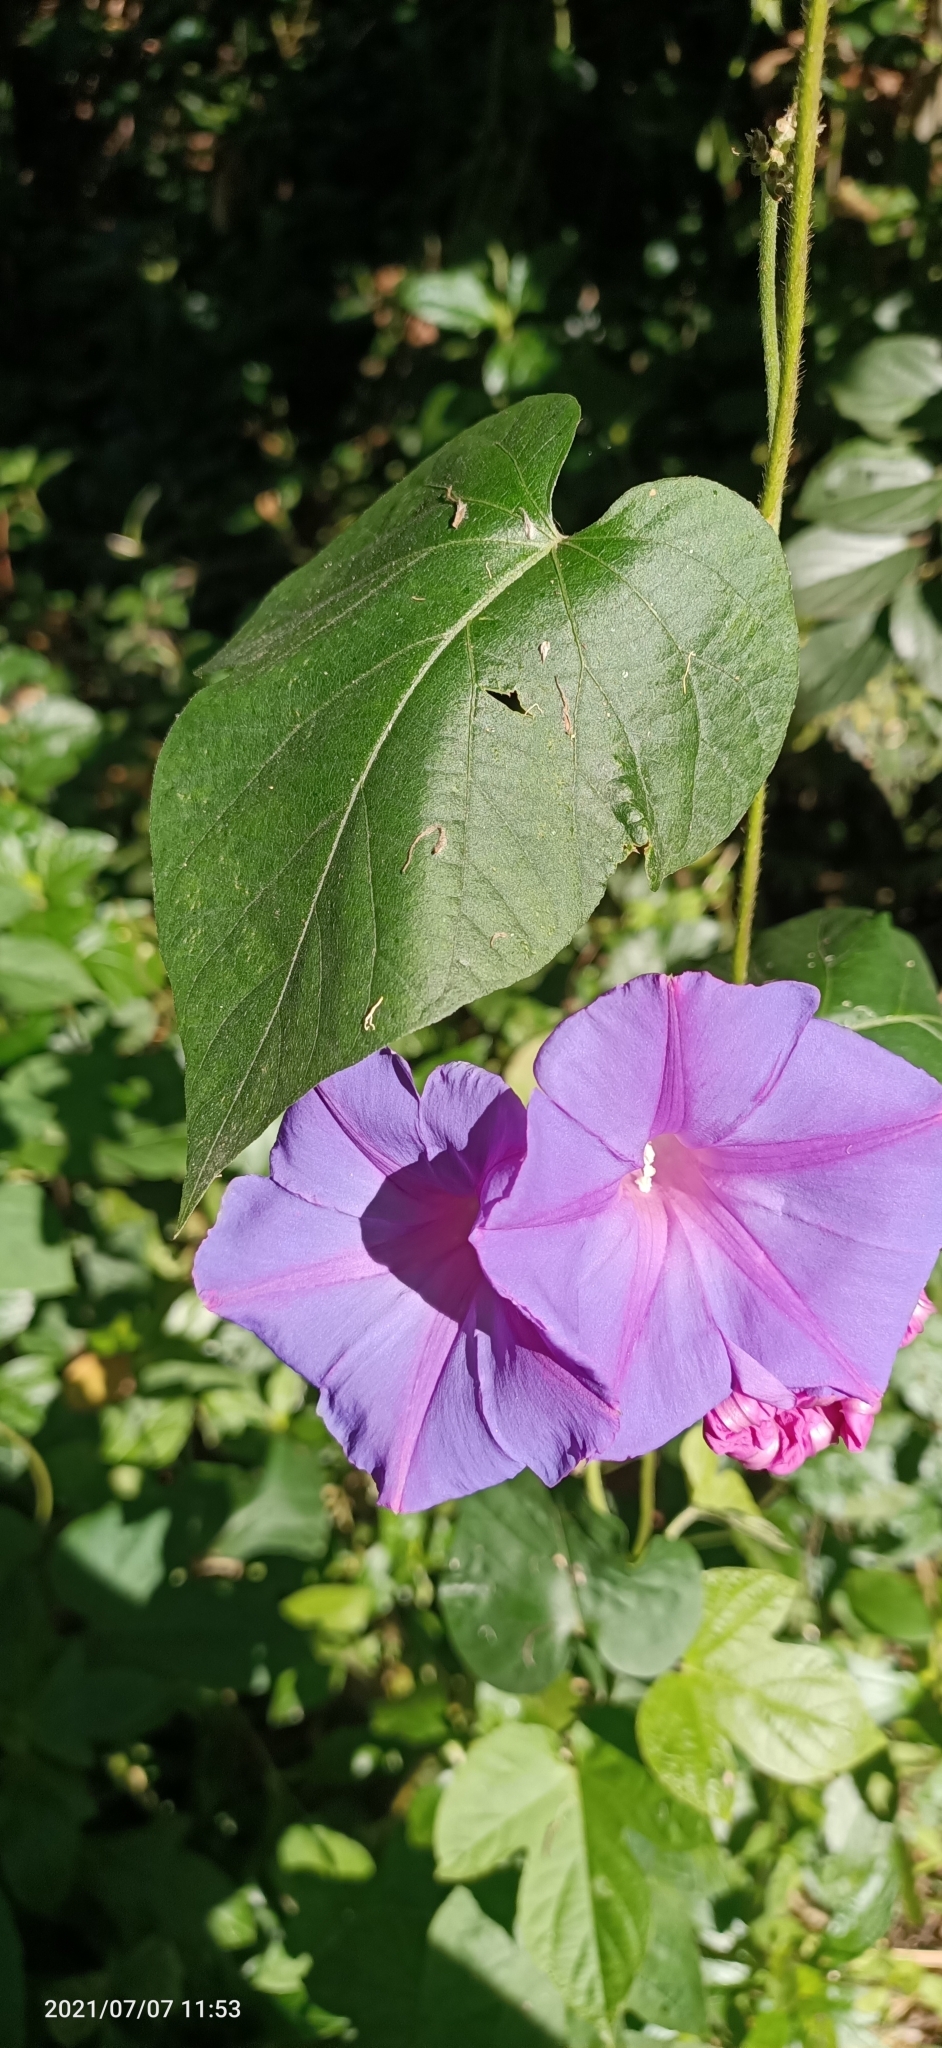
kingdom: Plantae
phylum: Tracheophyta
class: Magnoliopsida
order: Solanales
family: Convolvulaceae
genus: Ipomoea
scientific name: Ipomoea indica
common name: Blue dawnflower
